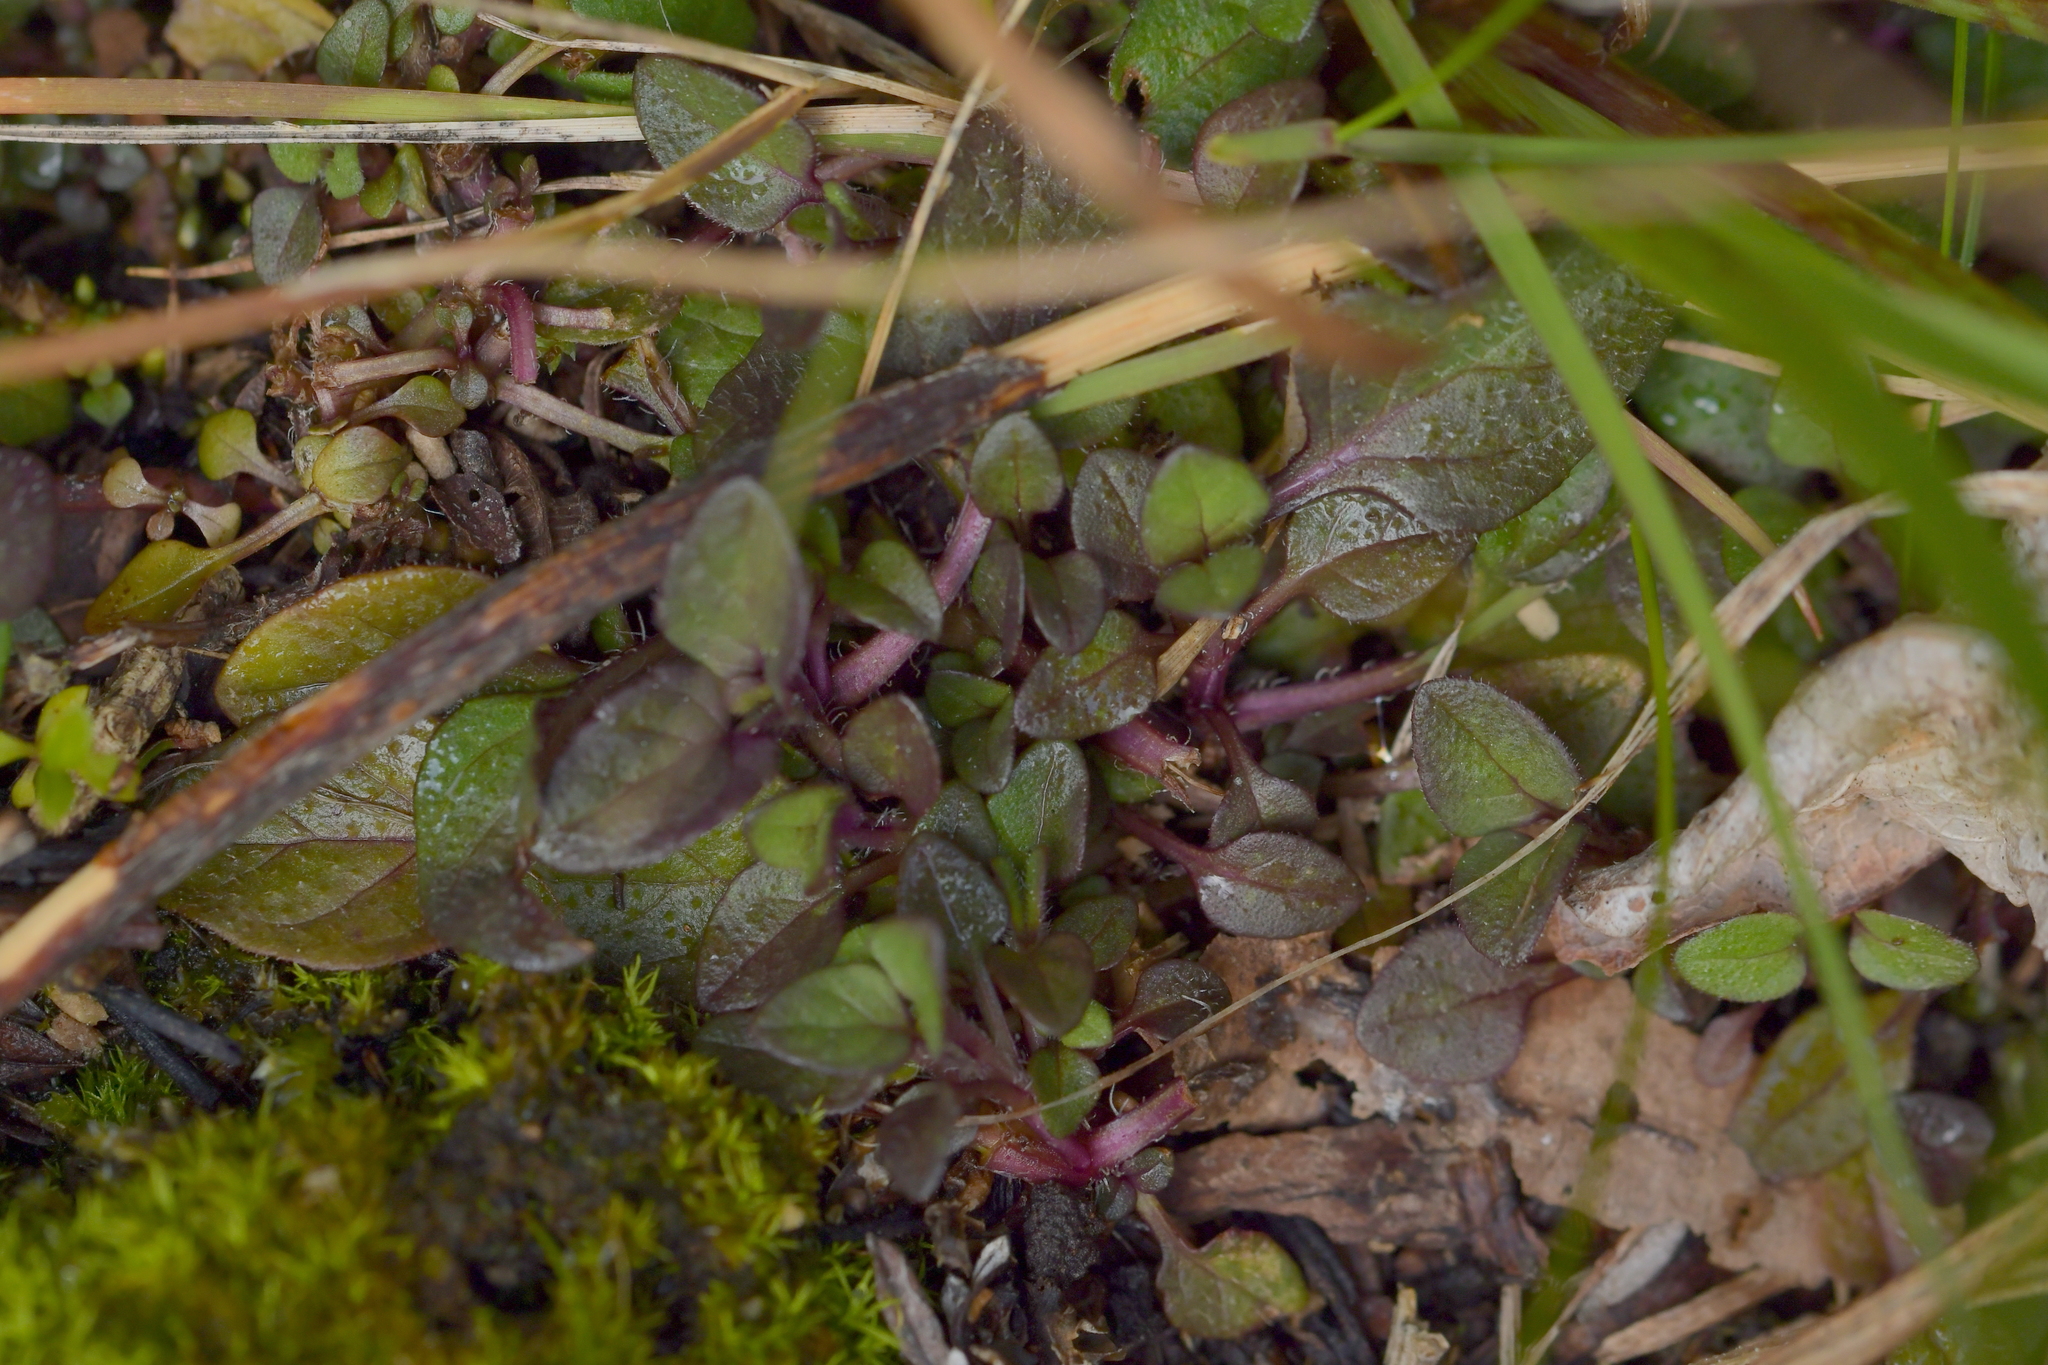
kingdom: Plantae
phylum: Tracheophyta
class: Magnoliopsida
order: Lamiales
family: Lamiaceae
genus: Prunella
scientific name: Prunella vulgaris
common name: Heal-all
